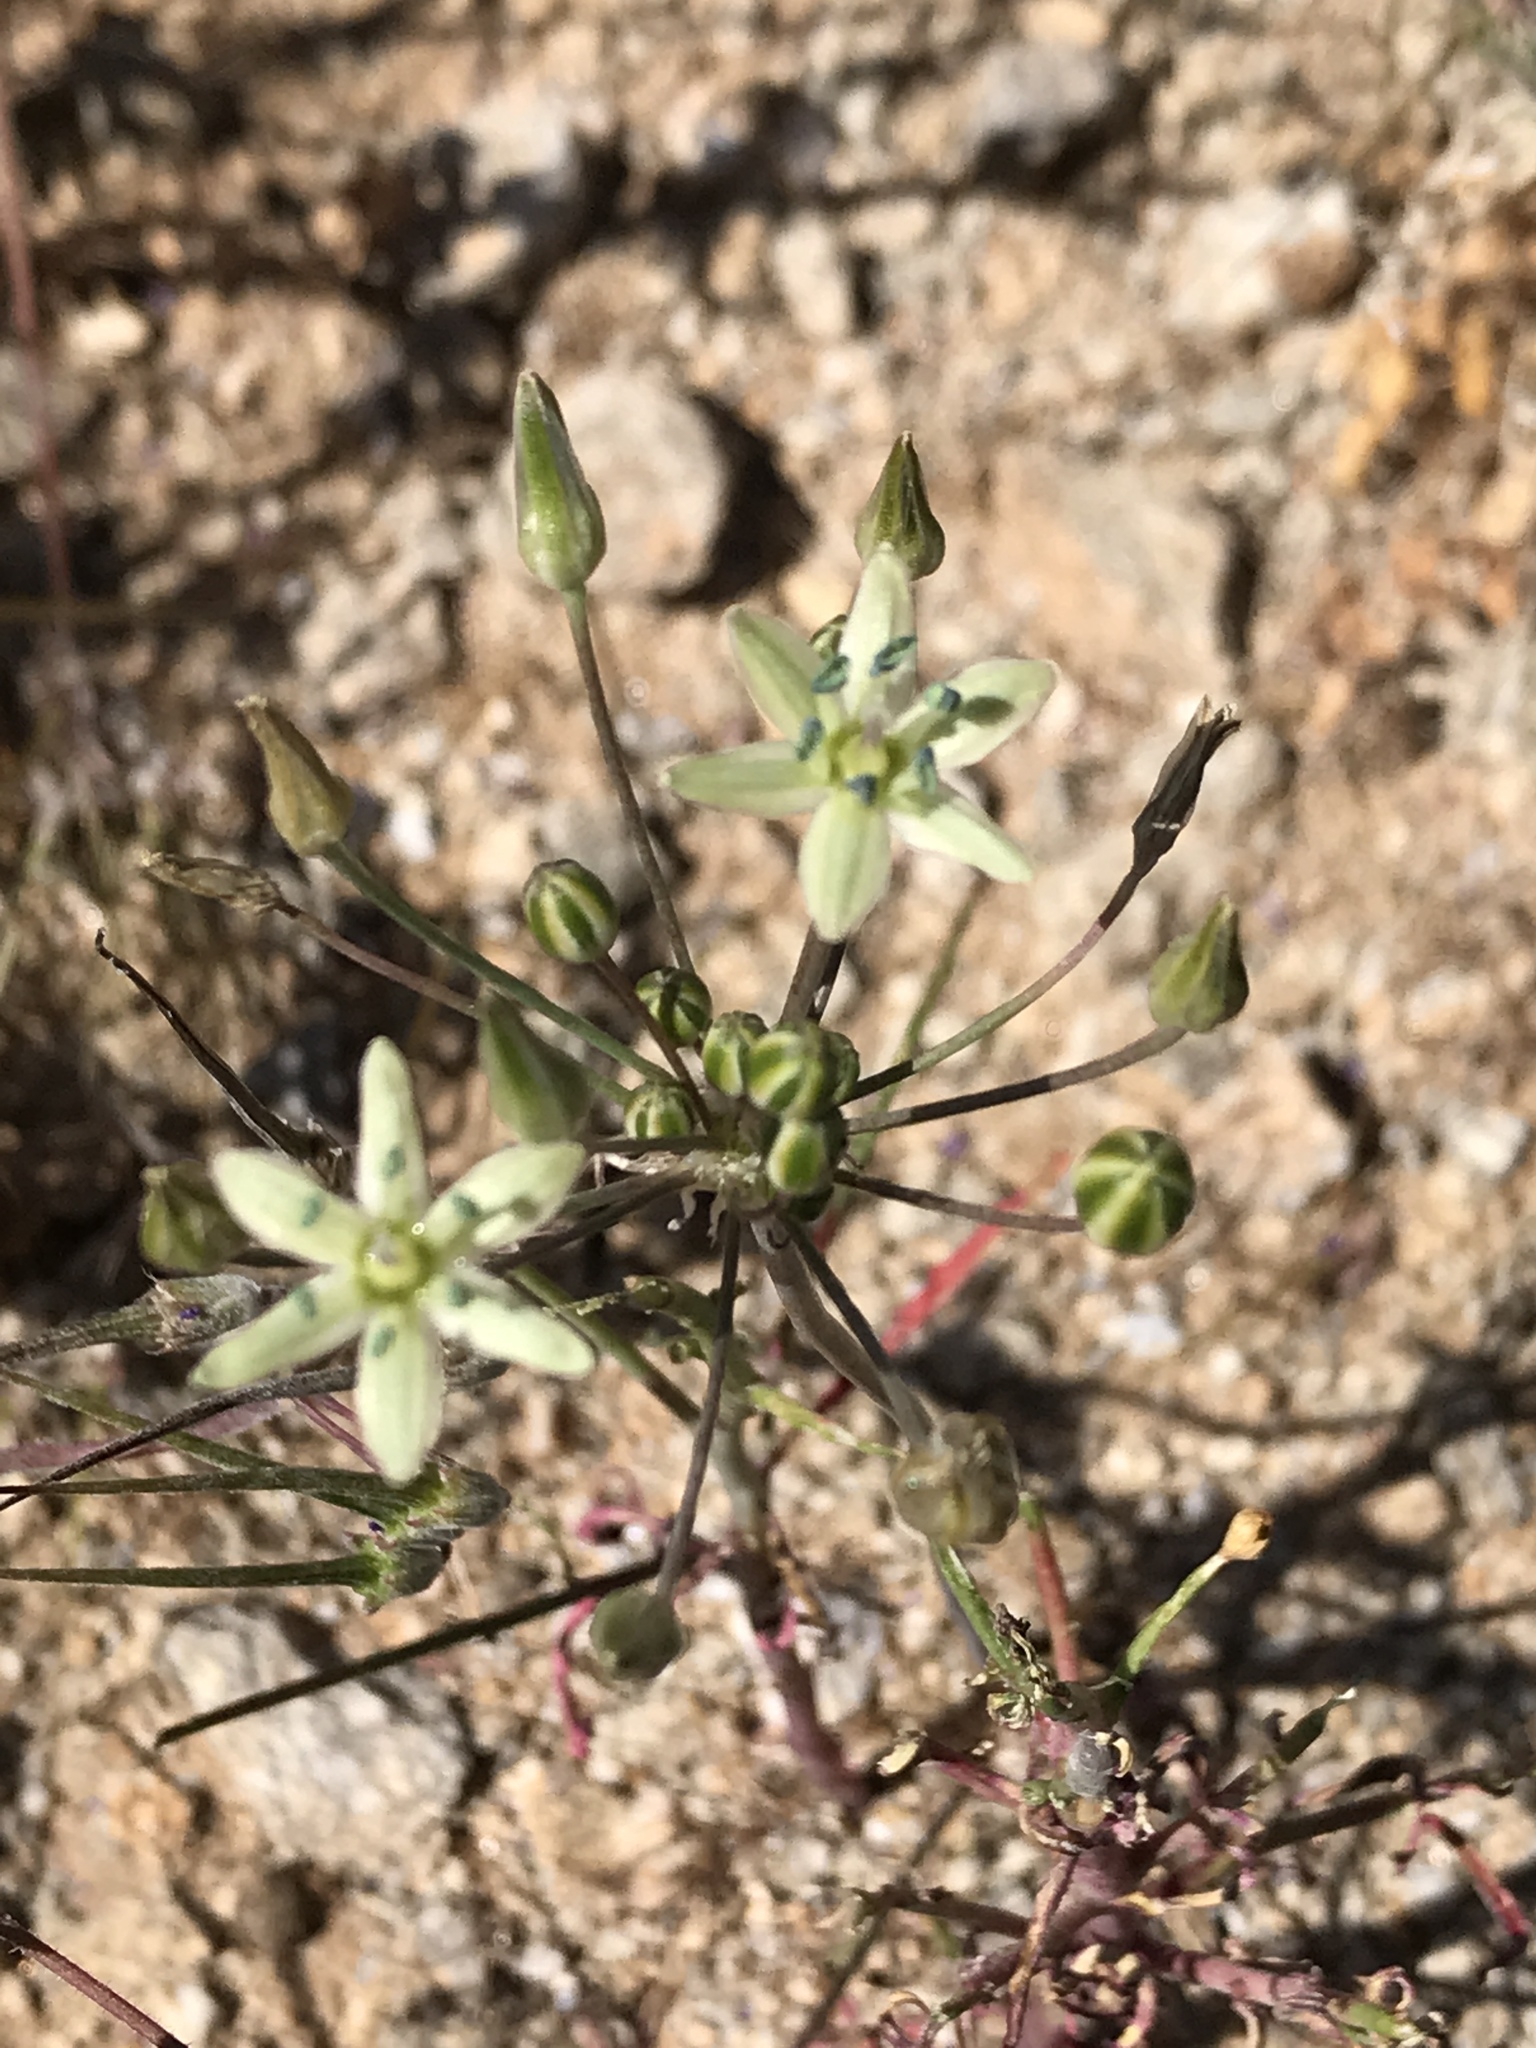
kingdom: Plantae
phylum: Tracheophyta
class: Liliopsida
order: Asparagales
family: Asparagaceae
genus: Muilla
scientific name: Muilla maritima
